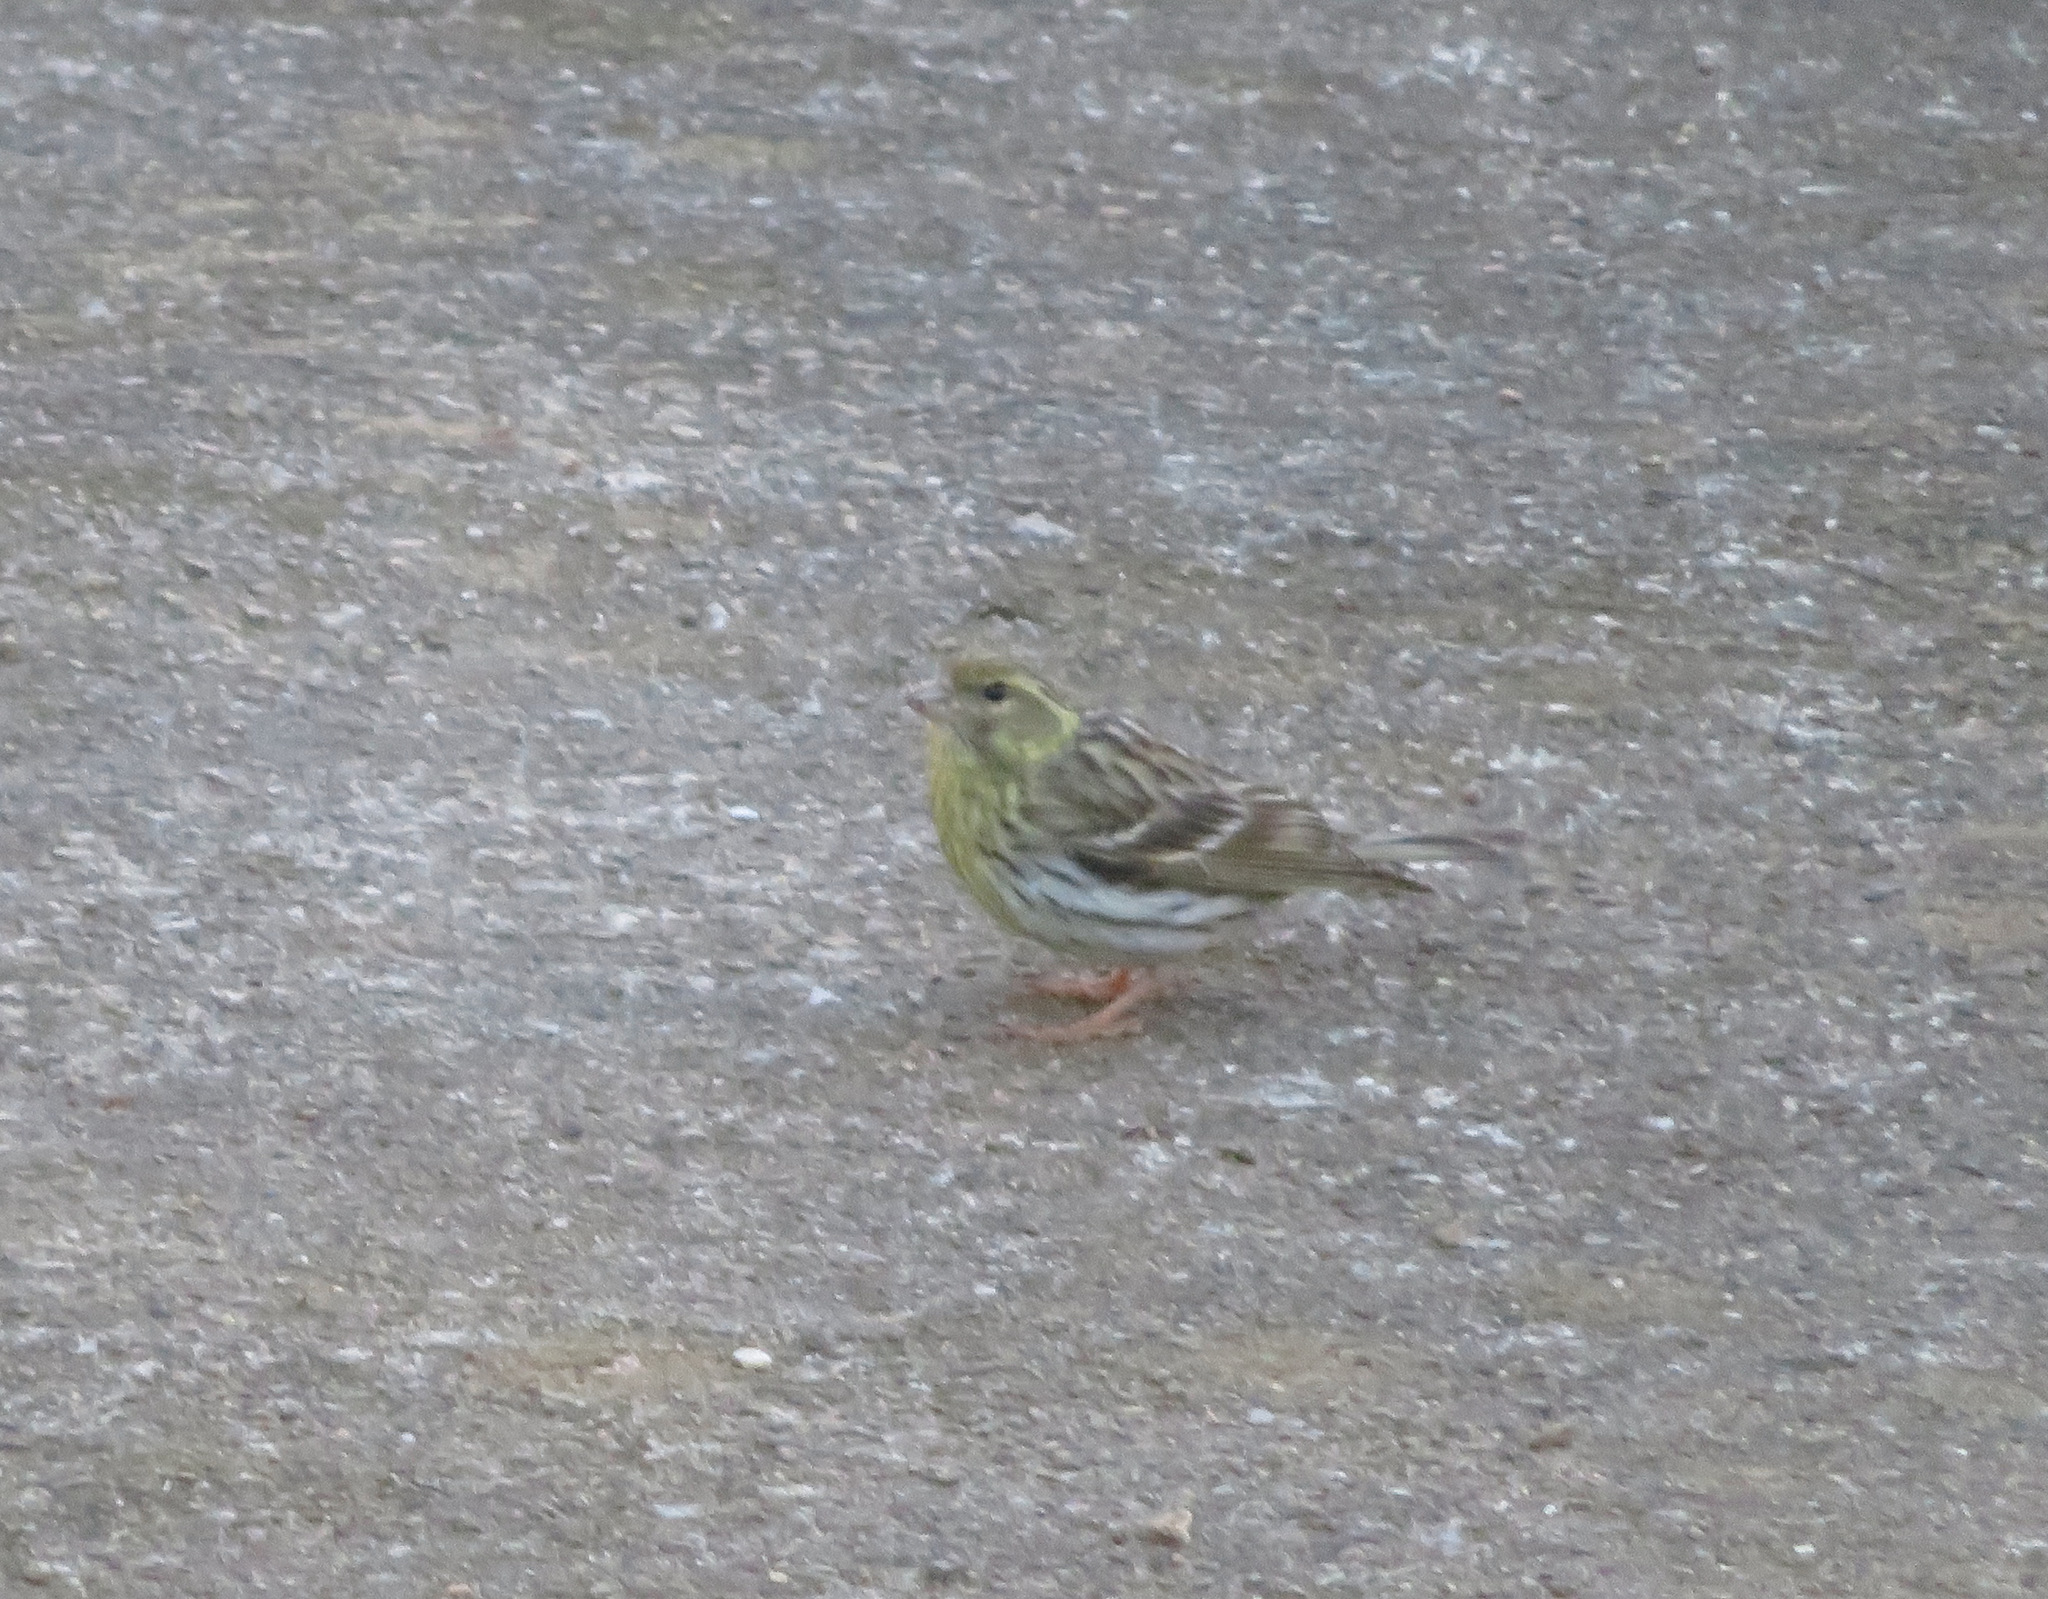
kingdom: Animalia
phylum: Chordata
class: Aves
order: Passeriformes
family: Fringillidae
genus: Serinus
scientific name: Serinus serinus
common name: European serin
